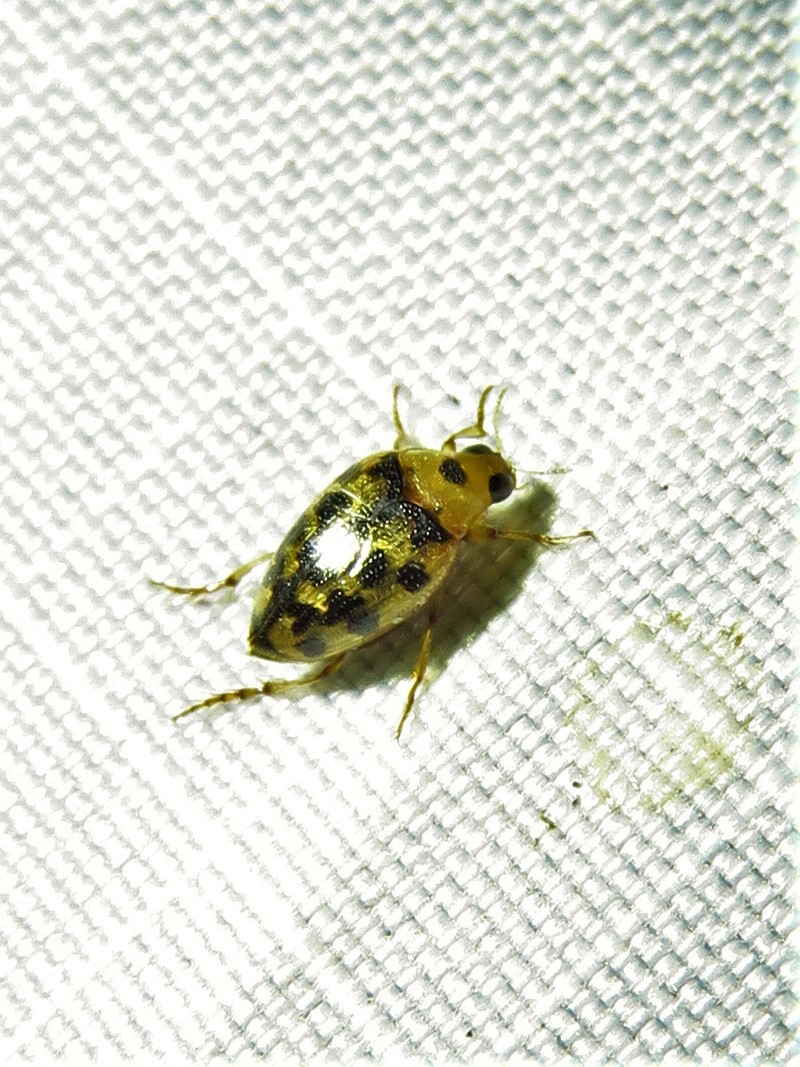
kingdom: Animalia
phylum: Arthropoda
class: Insecta
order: Coleoptera
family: Haliplidae
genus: Haliplus
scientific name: Haliplus
